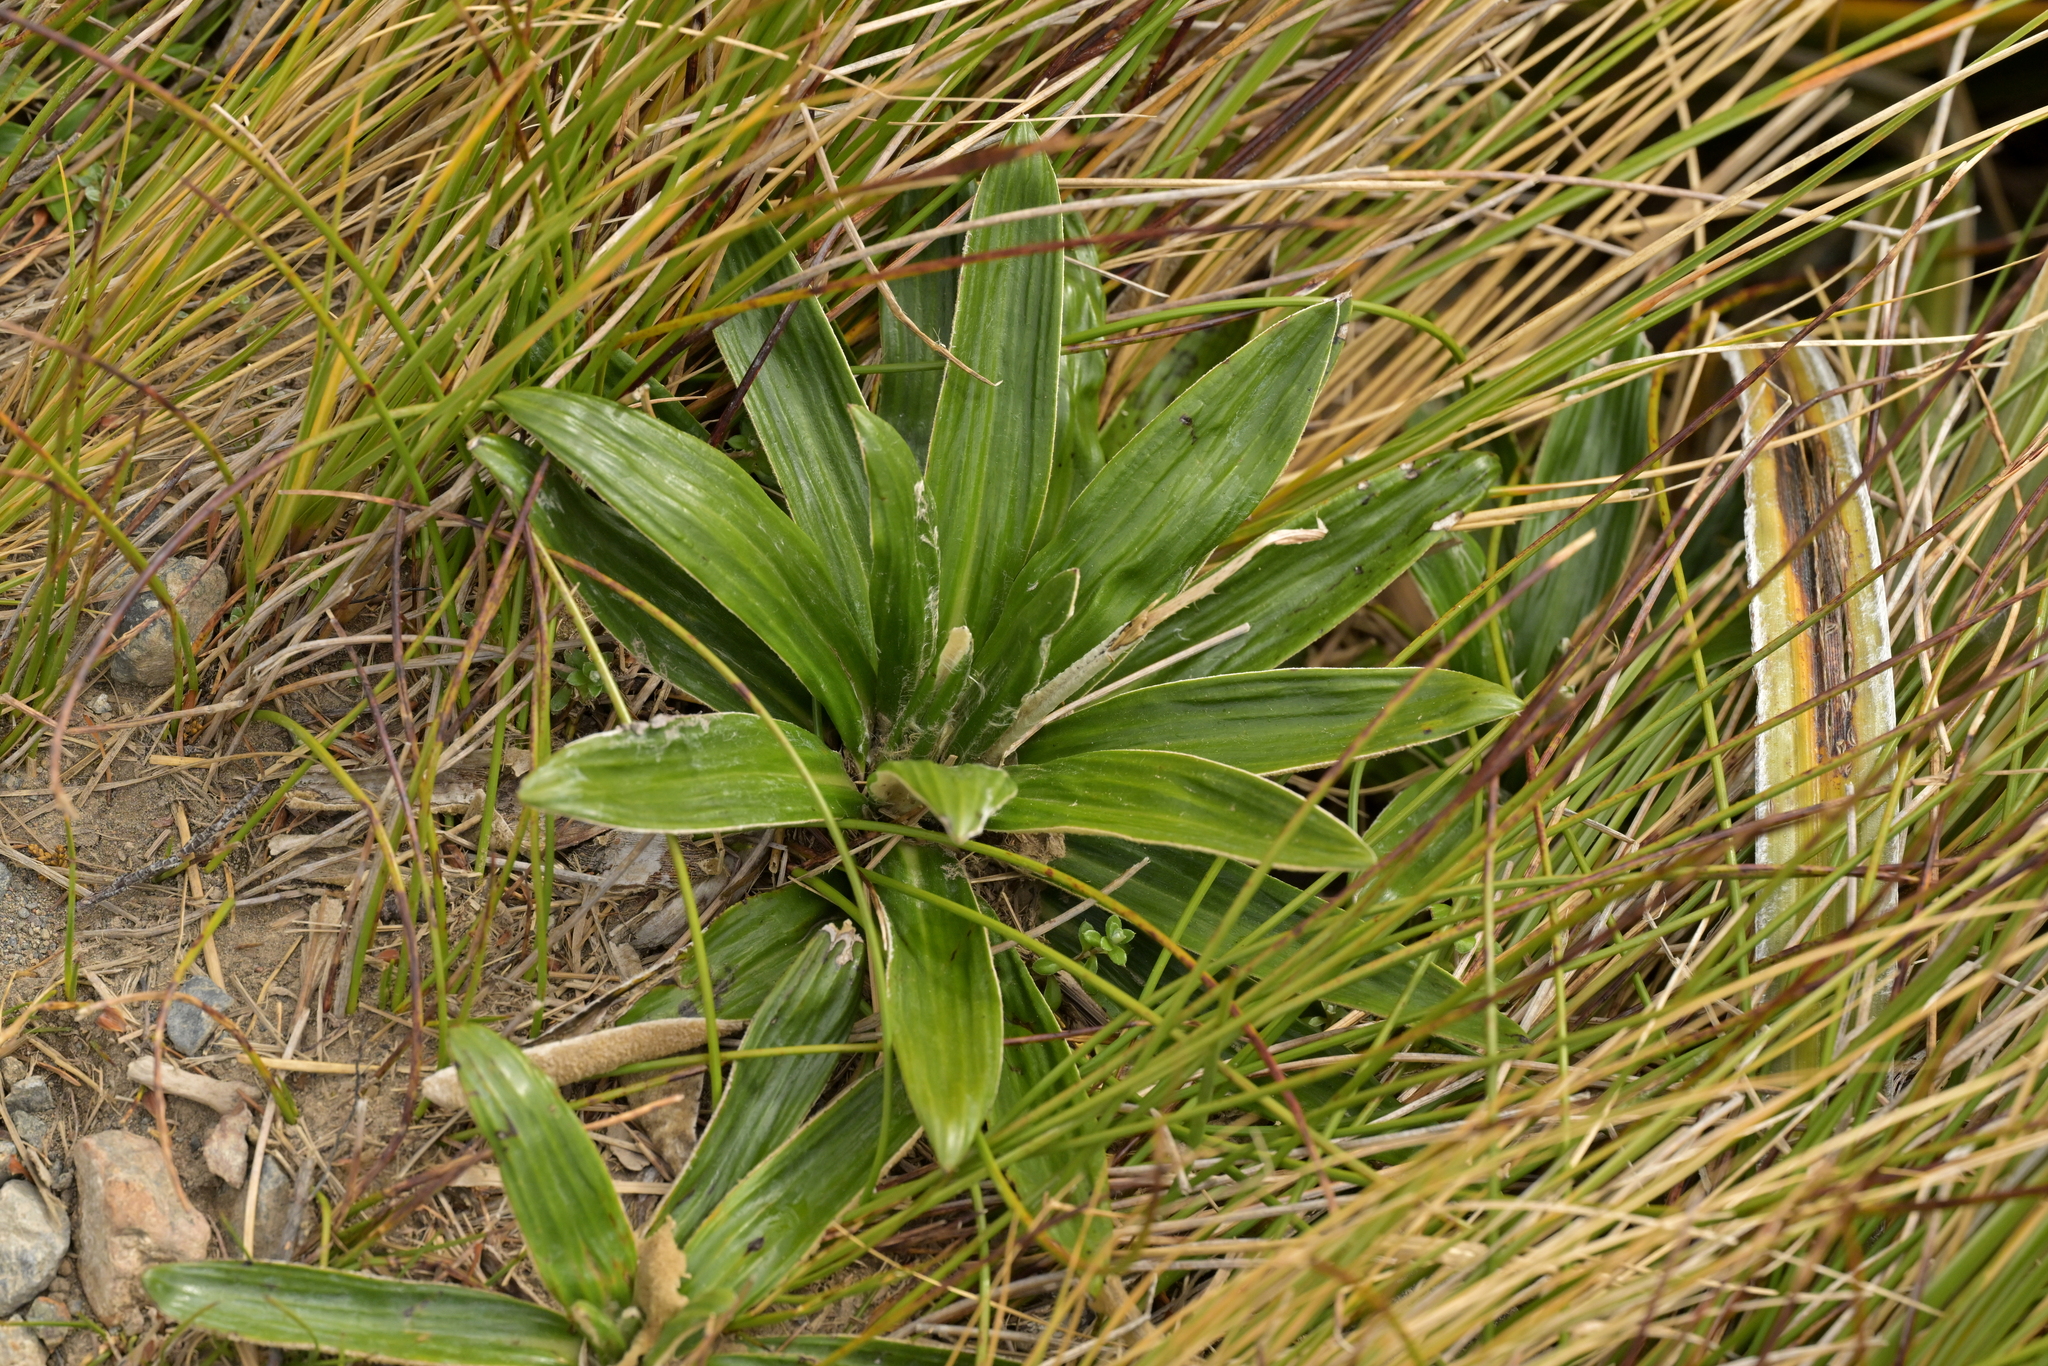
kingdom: Plantae
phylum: Tracheophyta
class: Magnoliopsida
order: Asterales
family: Asteraceae
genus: Celmisia
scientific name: Celmisia spectabilis
